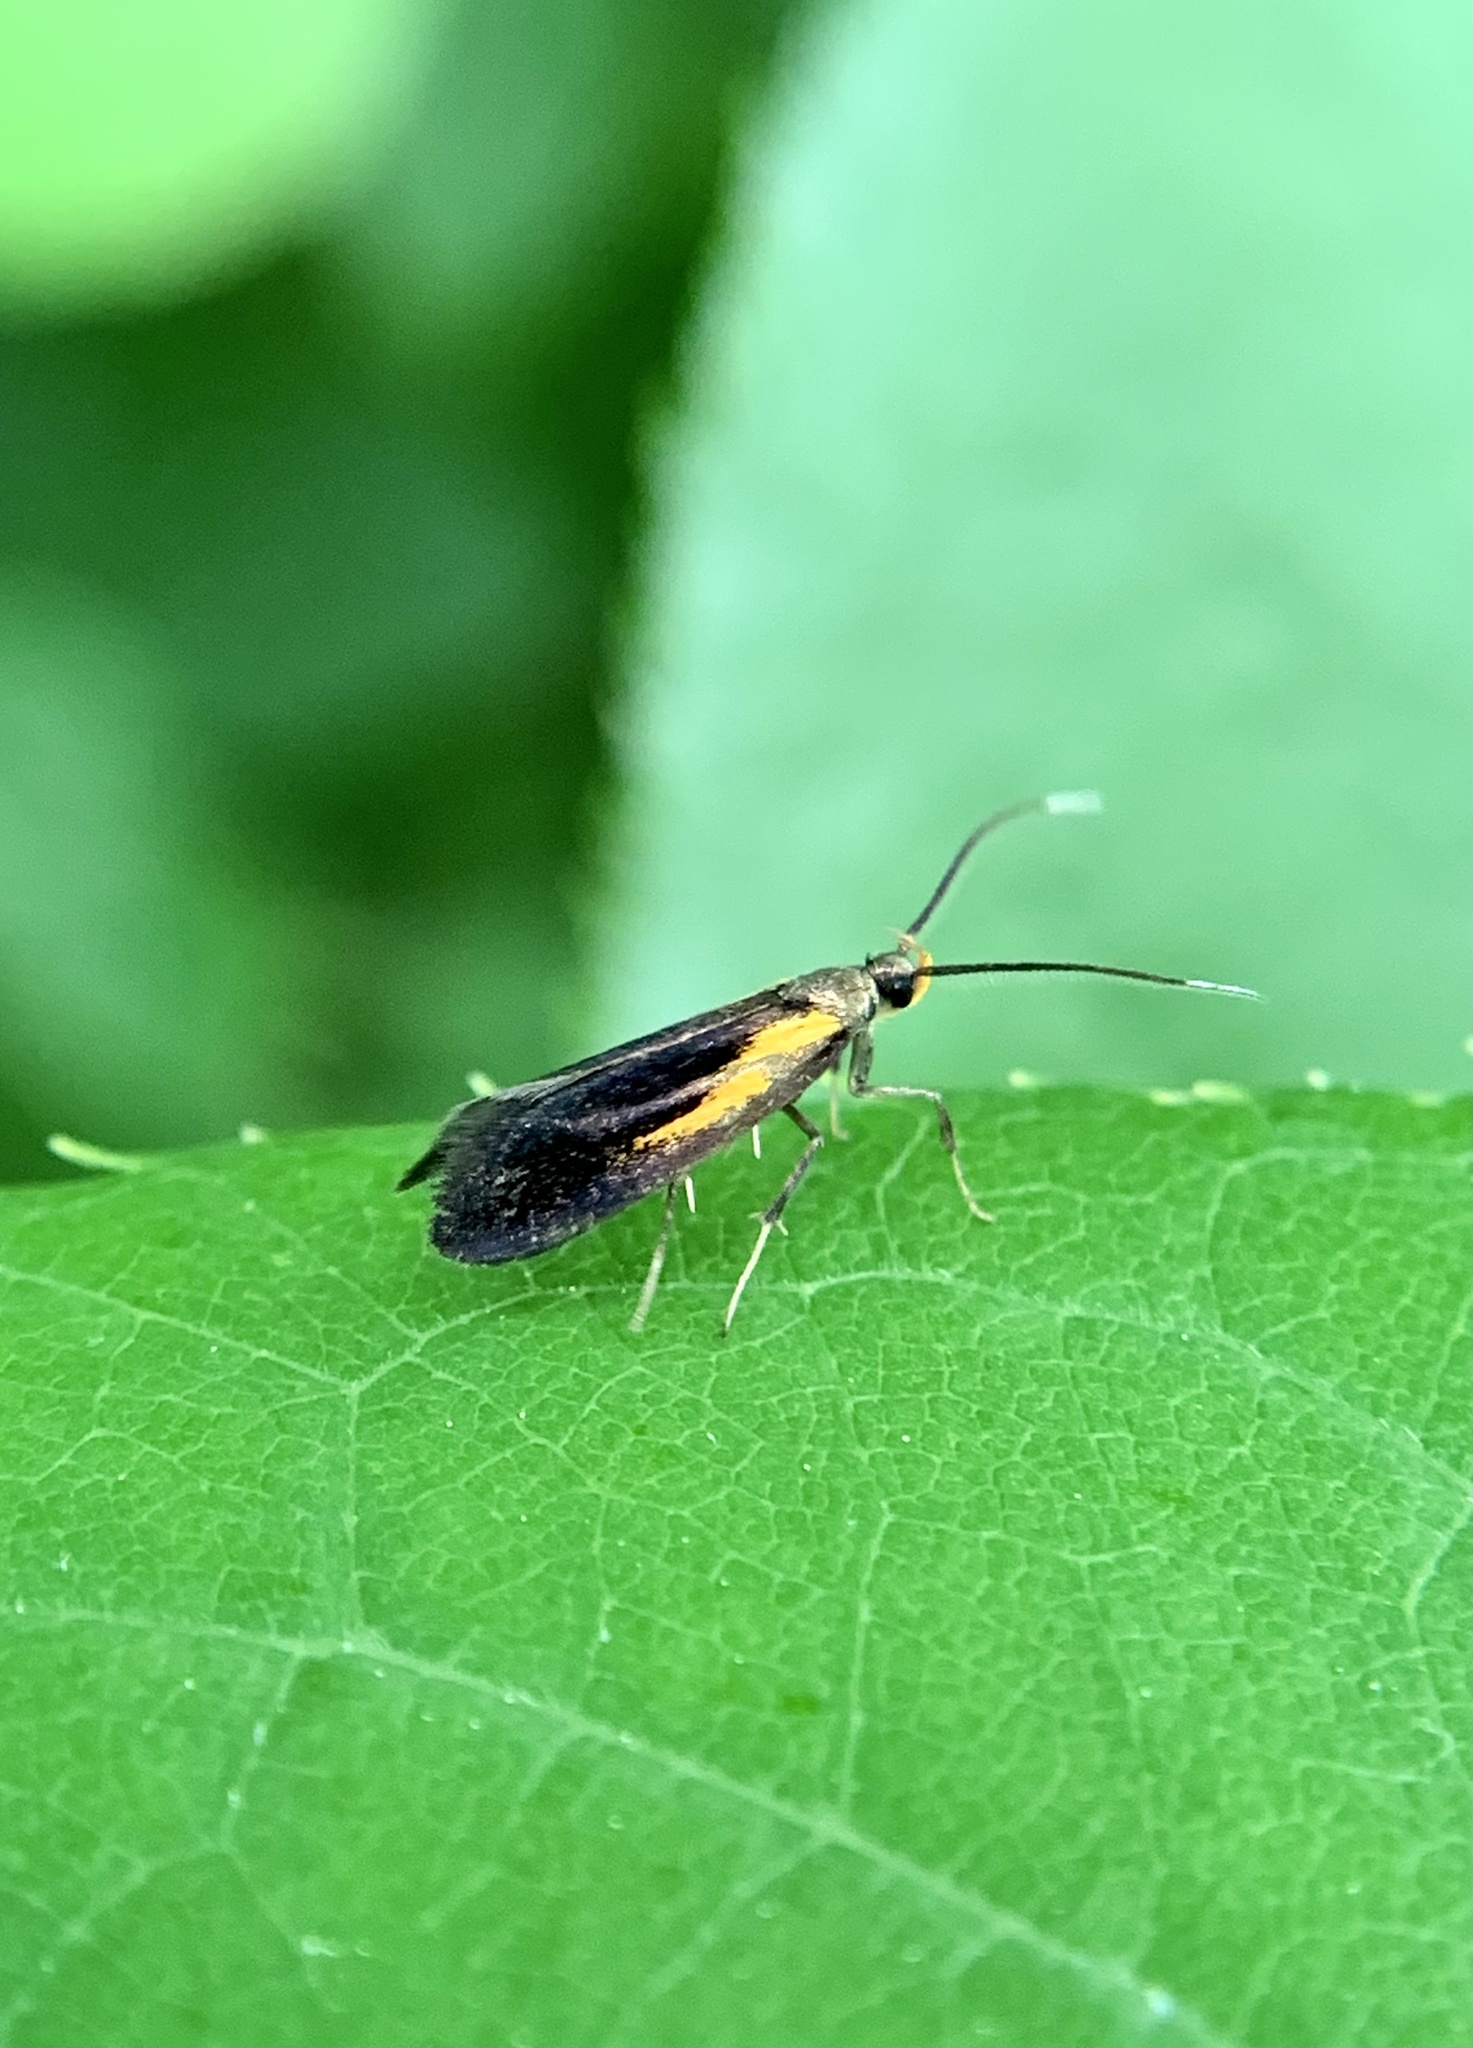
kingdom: Animalia
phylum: Arthropoda
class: Insecta
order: Lepidoptera
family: Oecophoridae
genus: Mathildana
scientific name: Mathildana newmanella
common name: Newman's mathildana moth
